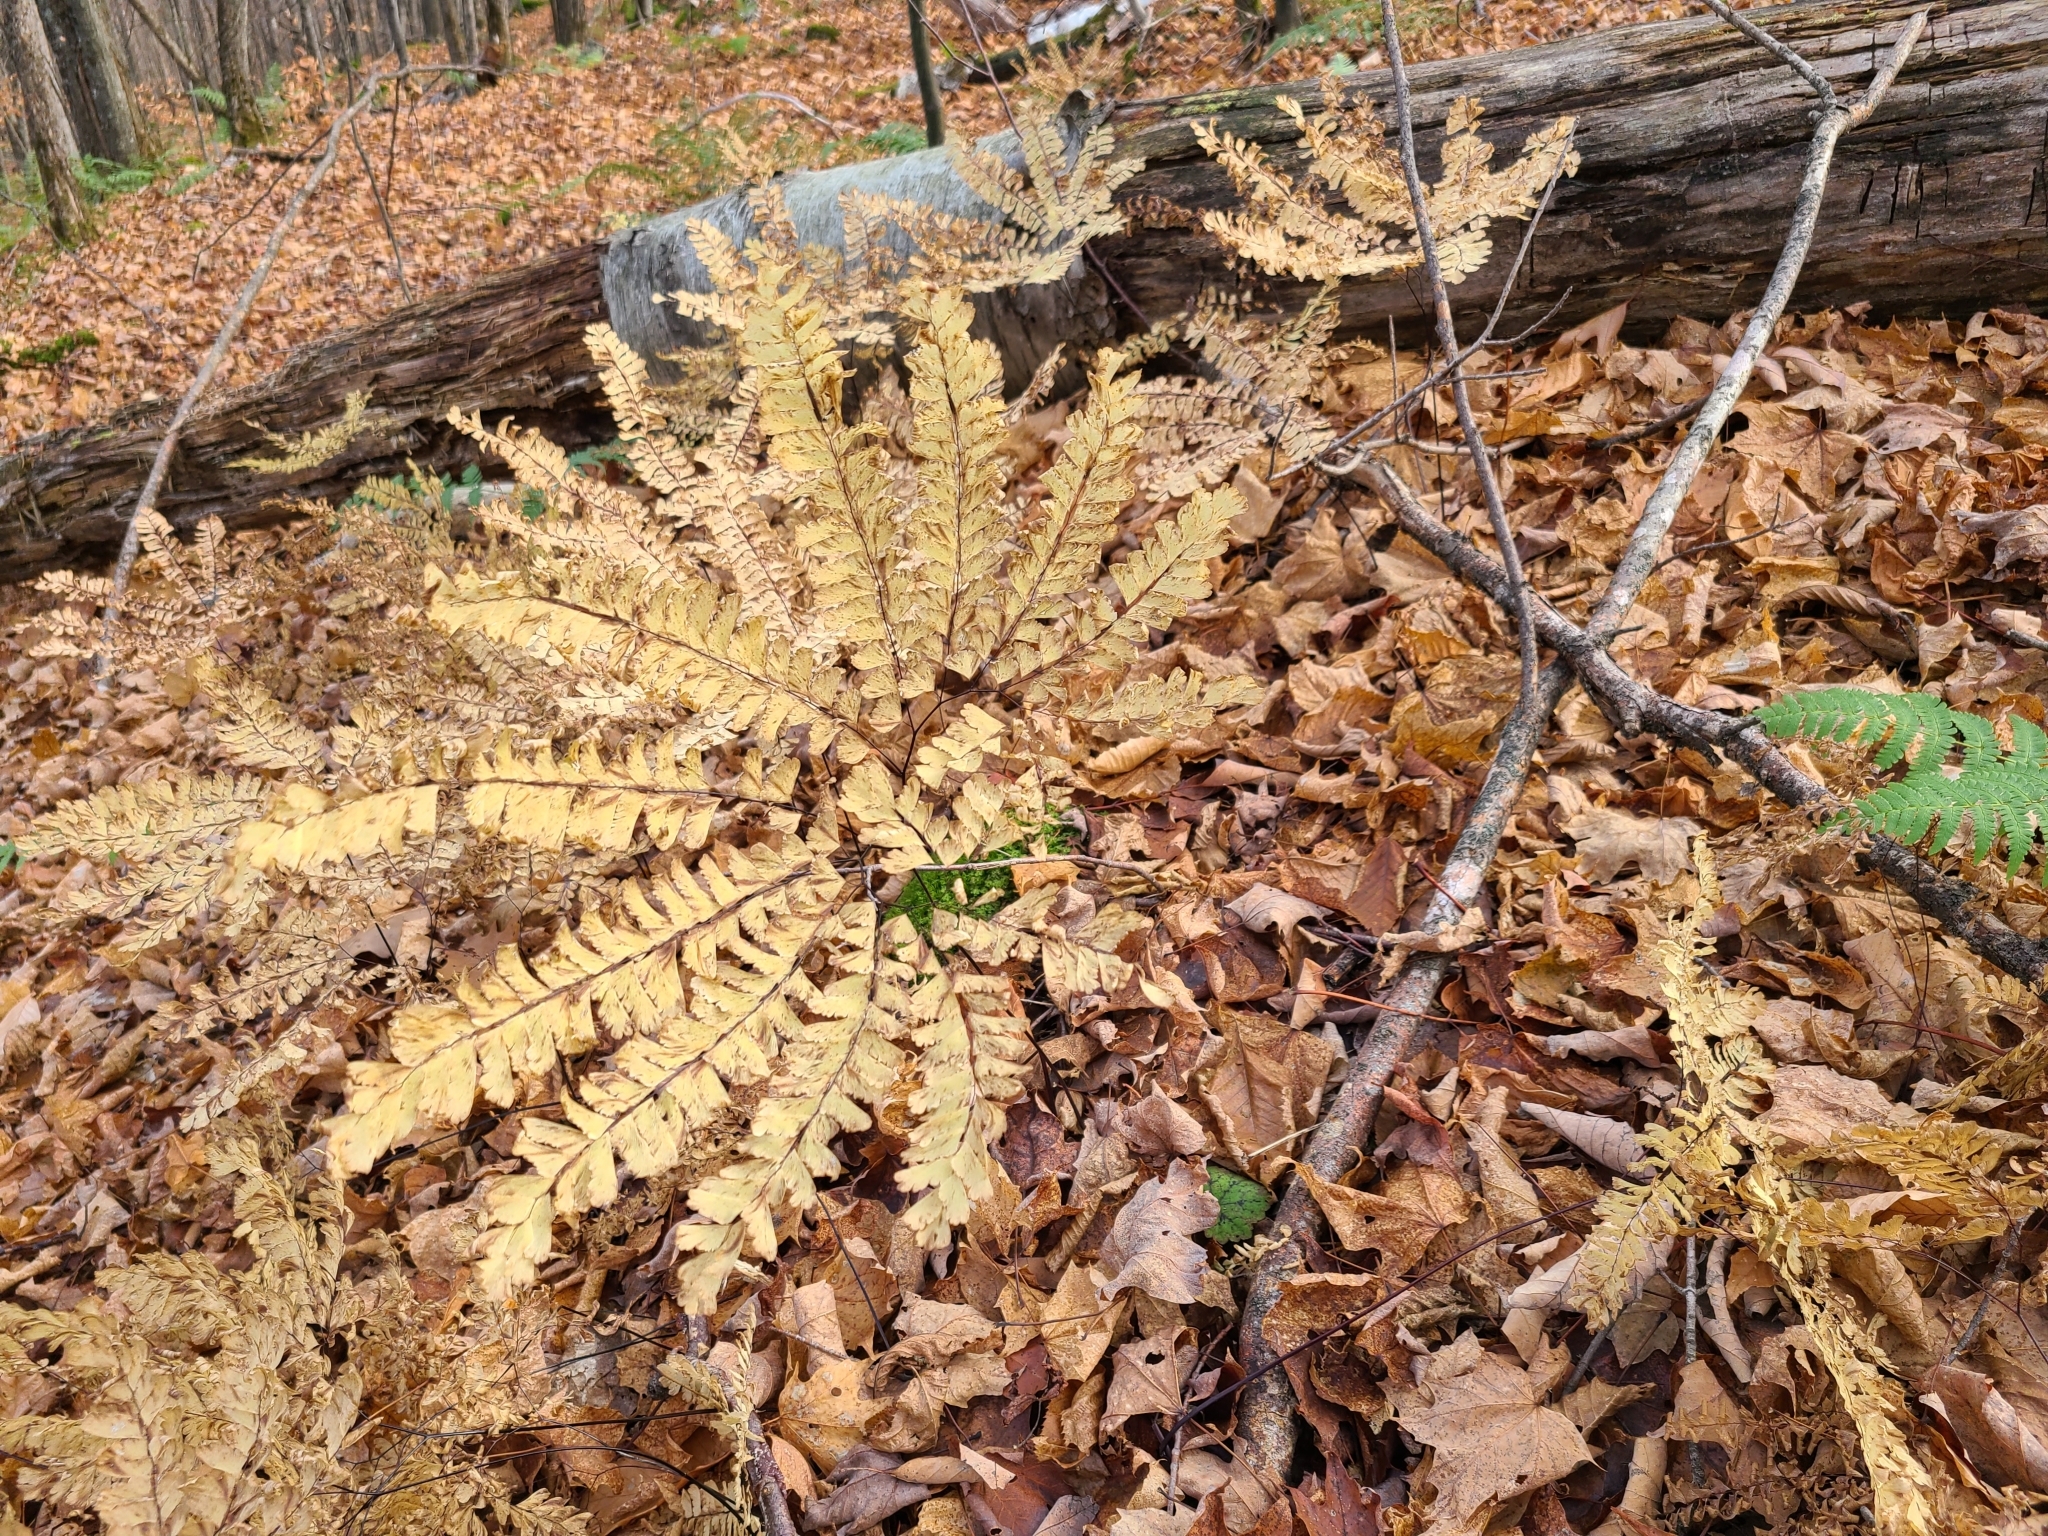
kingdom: Plantae
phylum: Tracheophyta
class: Polypodiopsida
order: Polypodiales
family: Pteridaceae
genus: Adiantum
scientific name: Adiantum pedatum
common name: Five-finger fern
